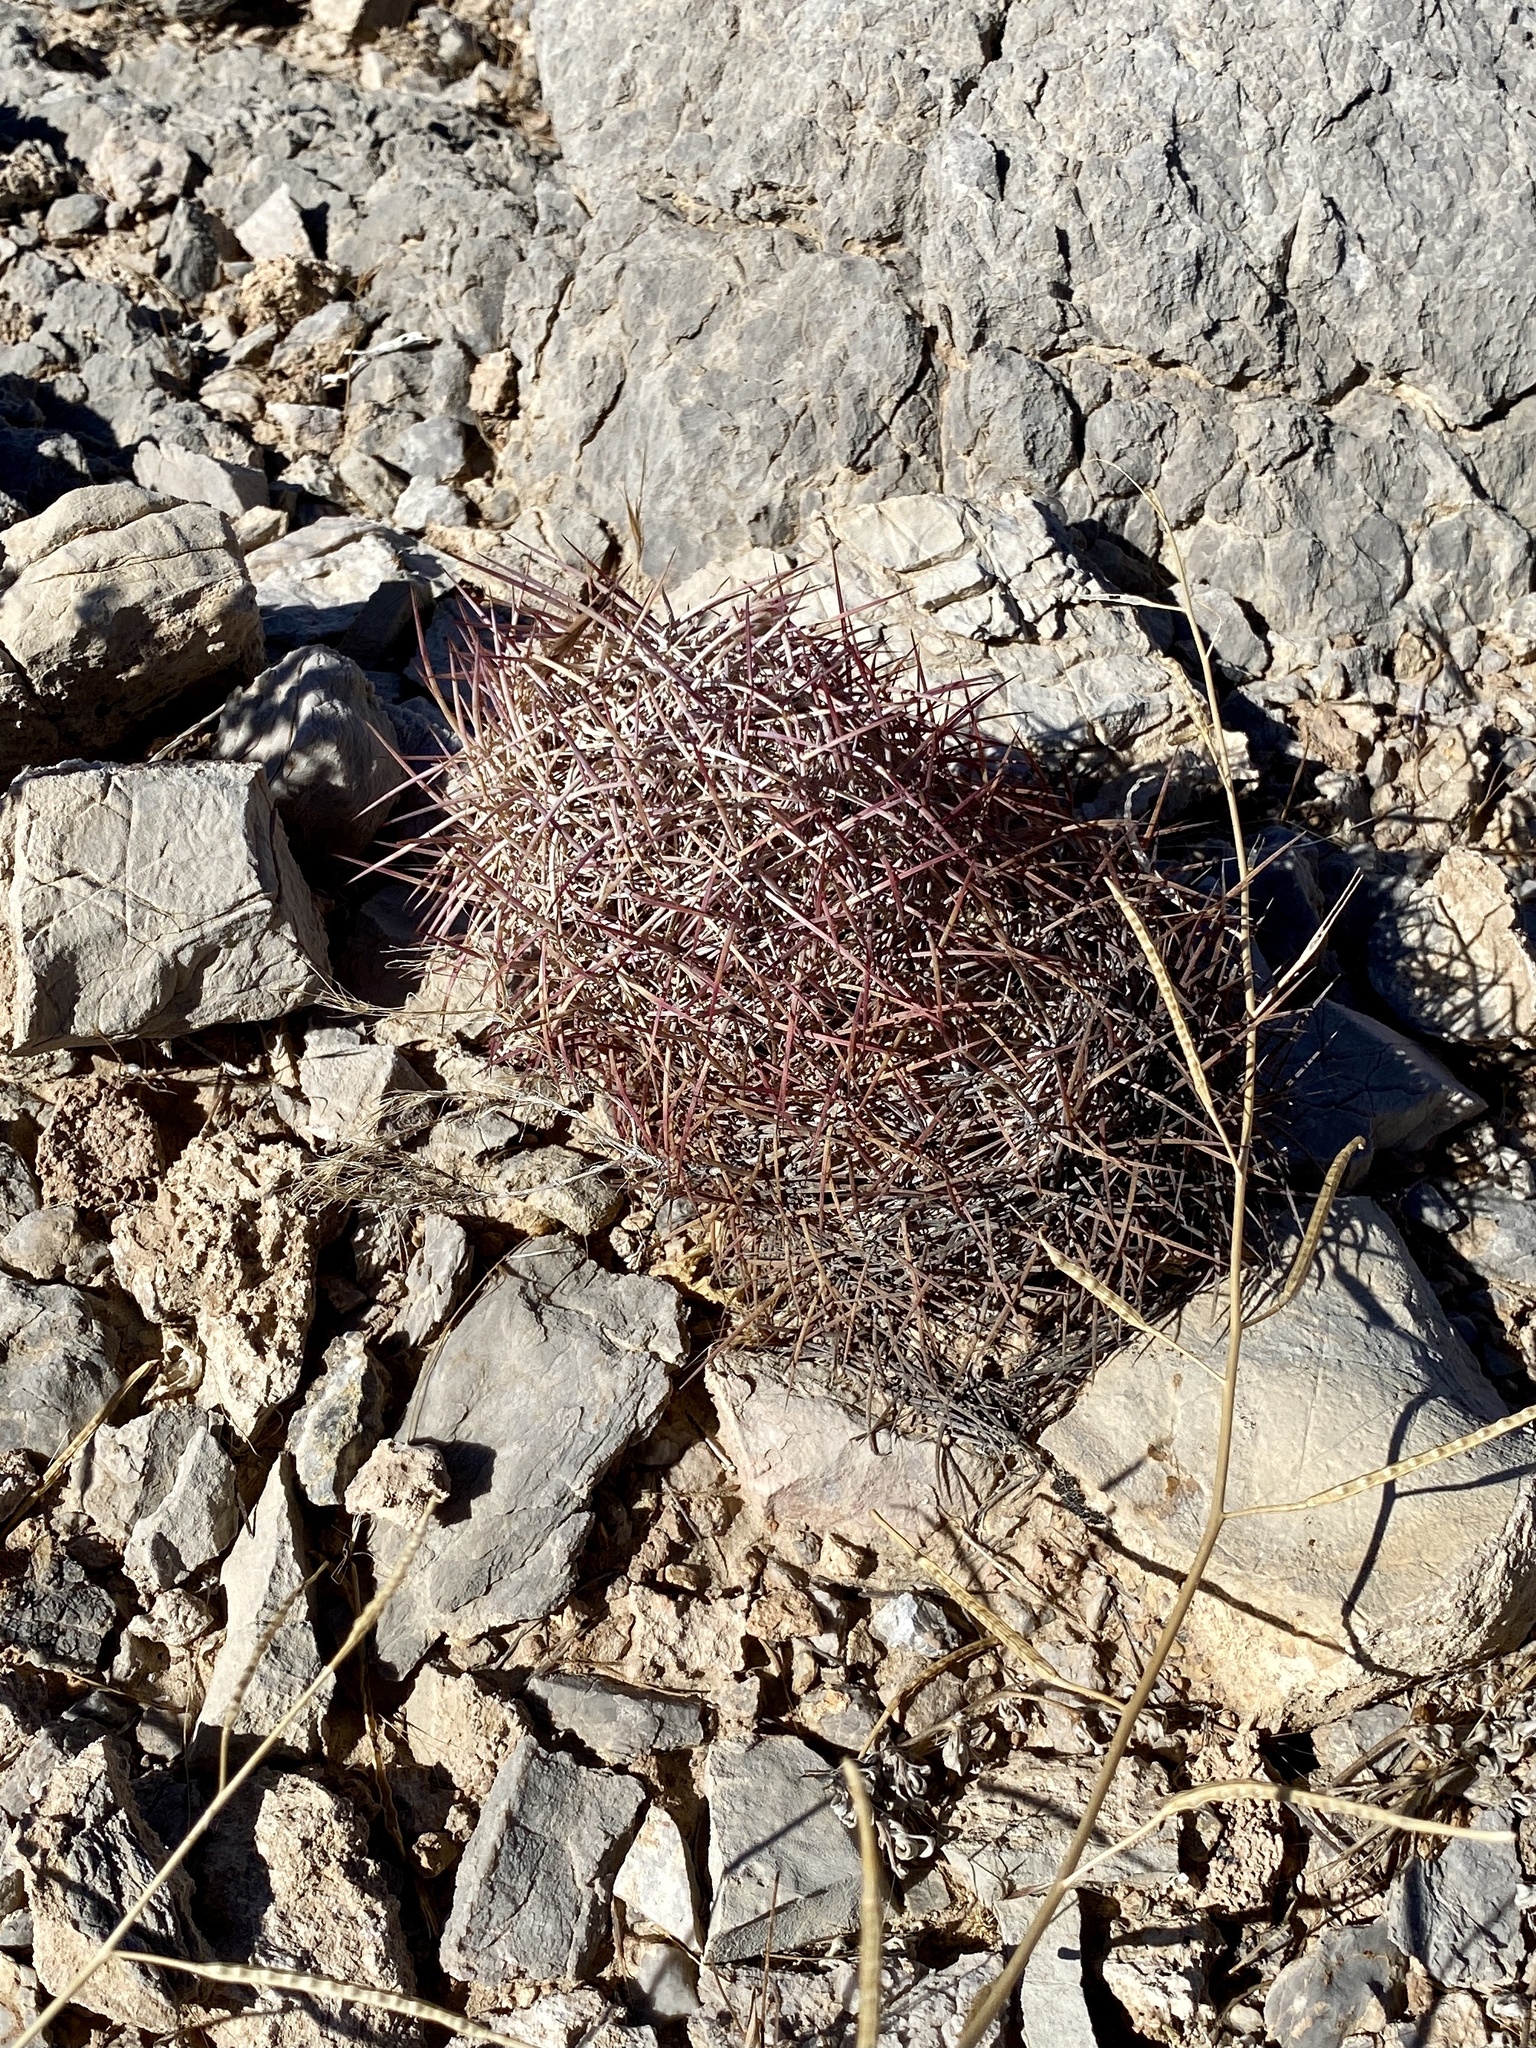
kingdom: Plantae
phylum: Tracheophyta
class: Magnoliopsida
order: Caryophyllales
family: Cactaceae
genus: Sclerocactus
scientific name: Sclerocactus johnsonii
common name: Eight-spine fishhook cactus
